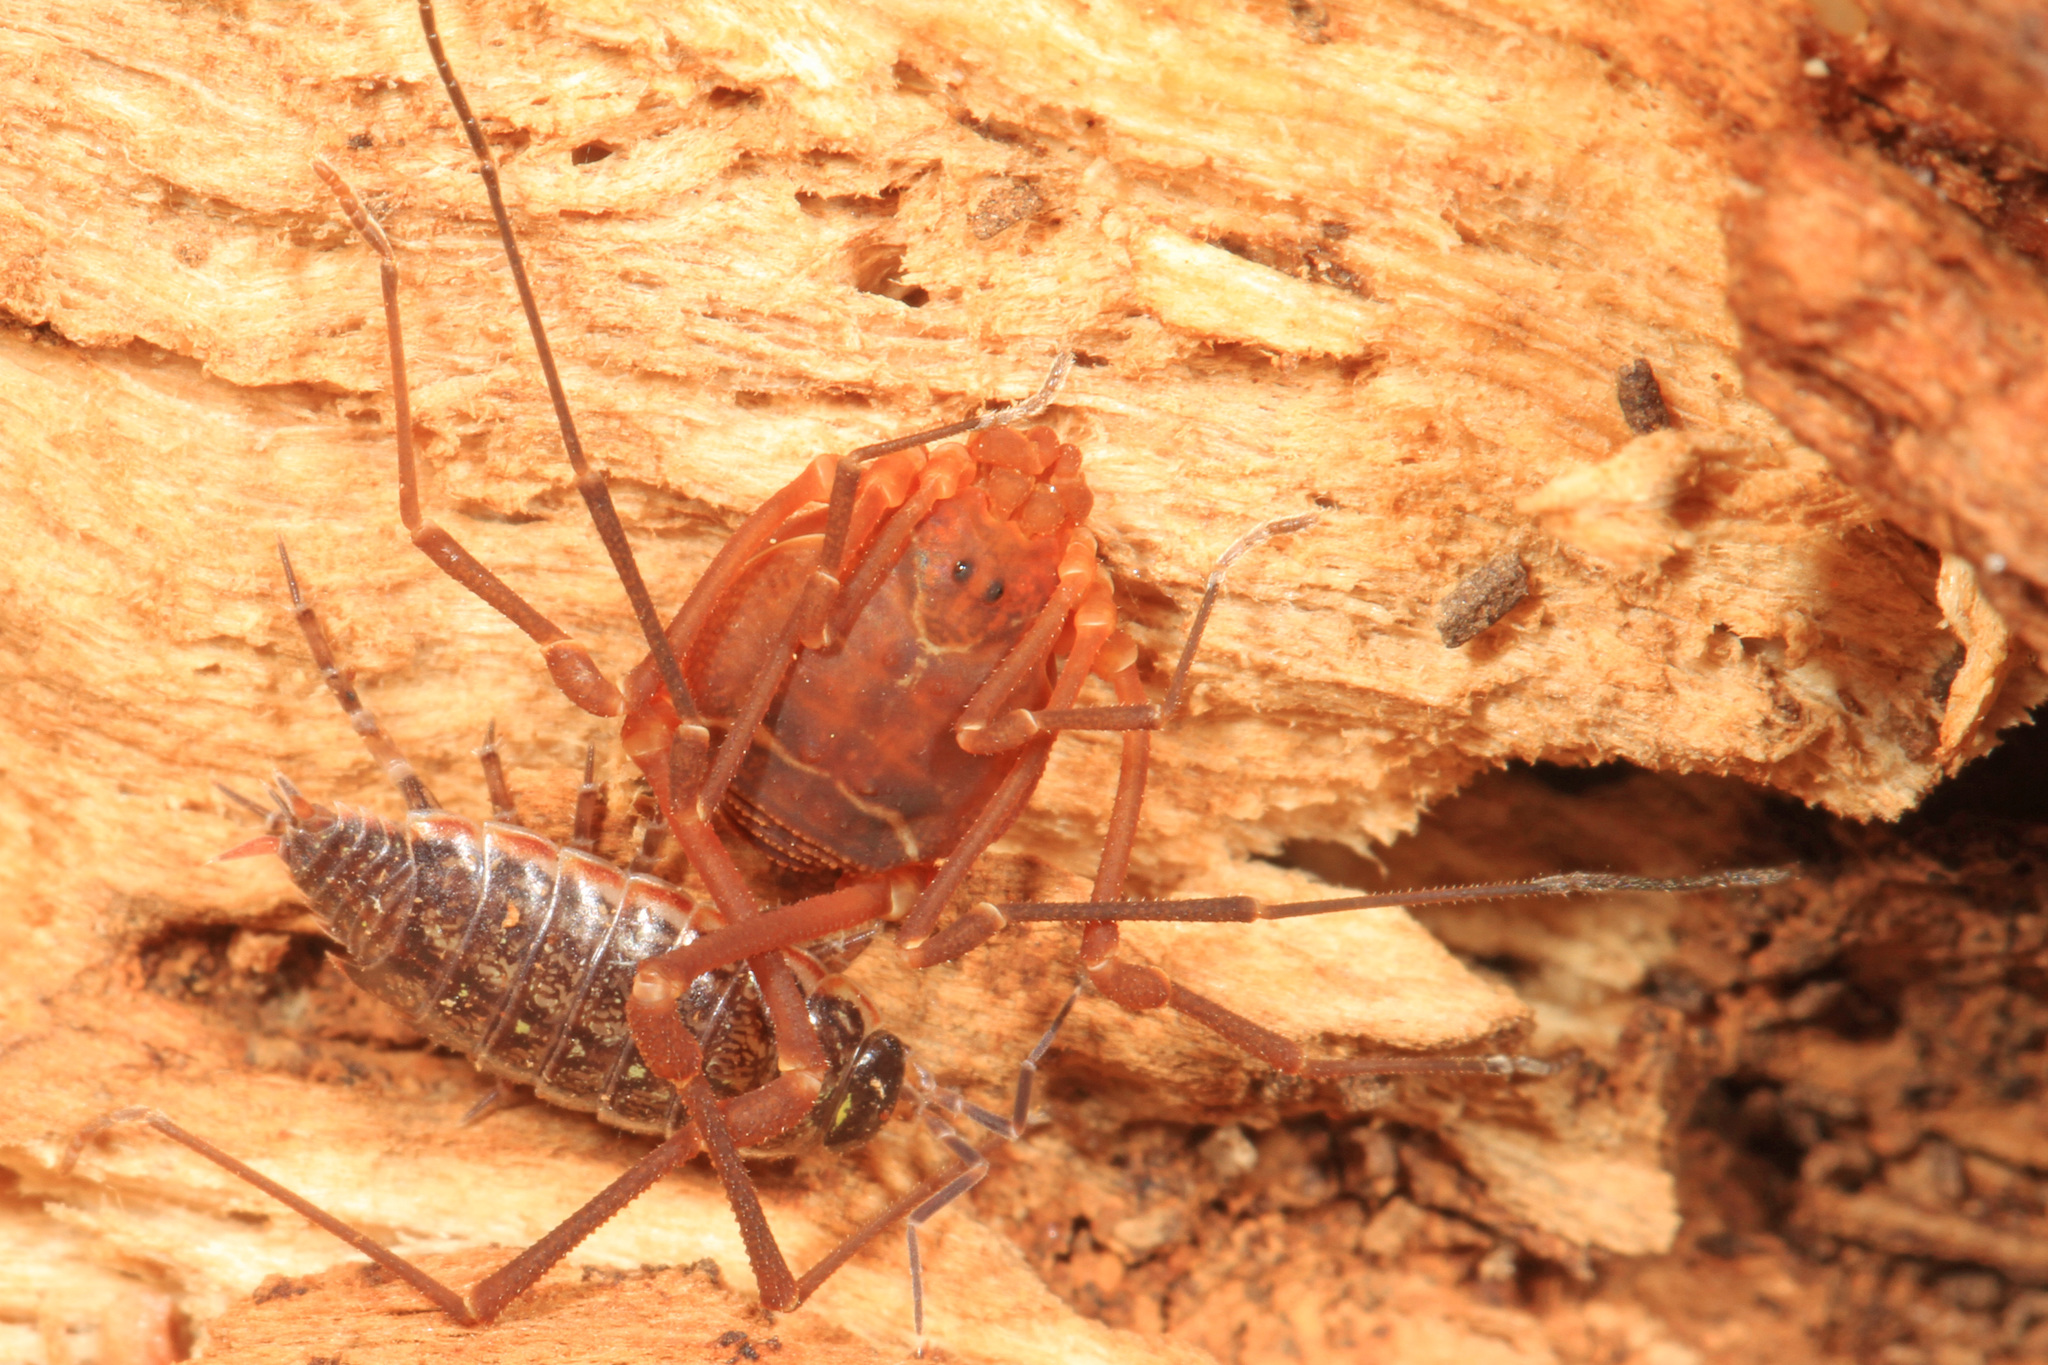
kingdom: Animalia
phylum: Arthropoda
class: Arachnida
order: Opiliones
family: Cosmetidae
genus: Libitioides
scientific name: Libitioides sayi
